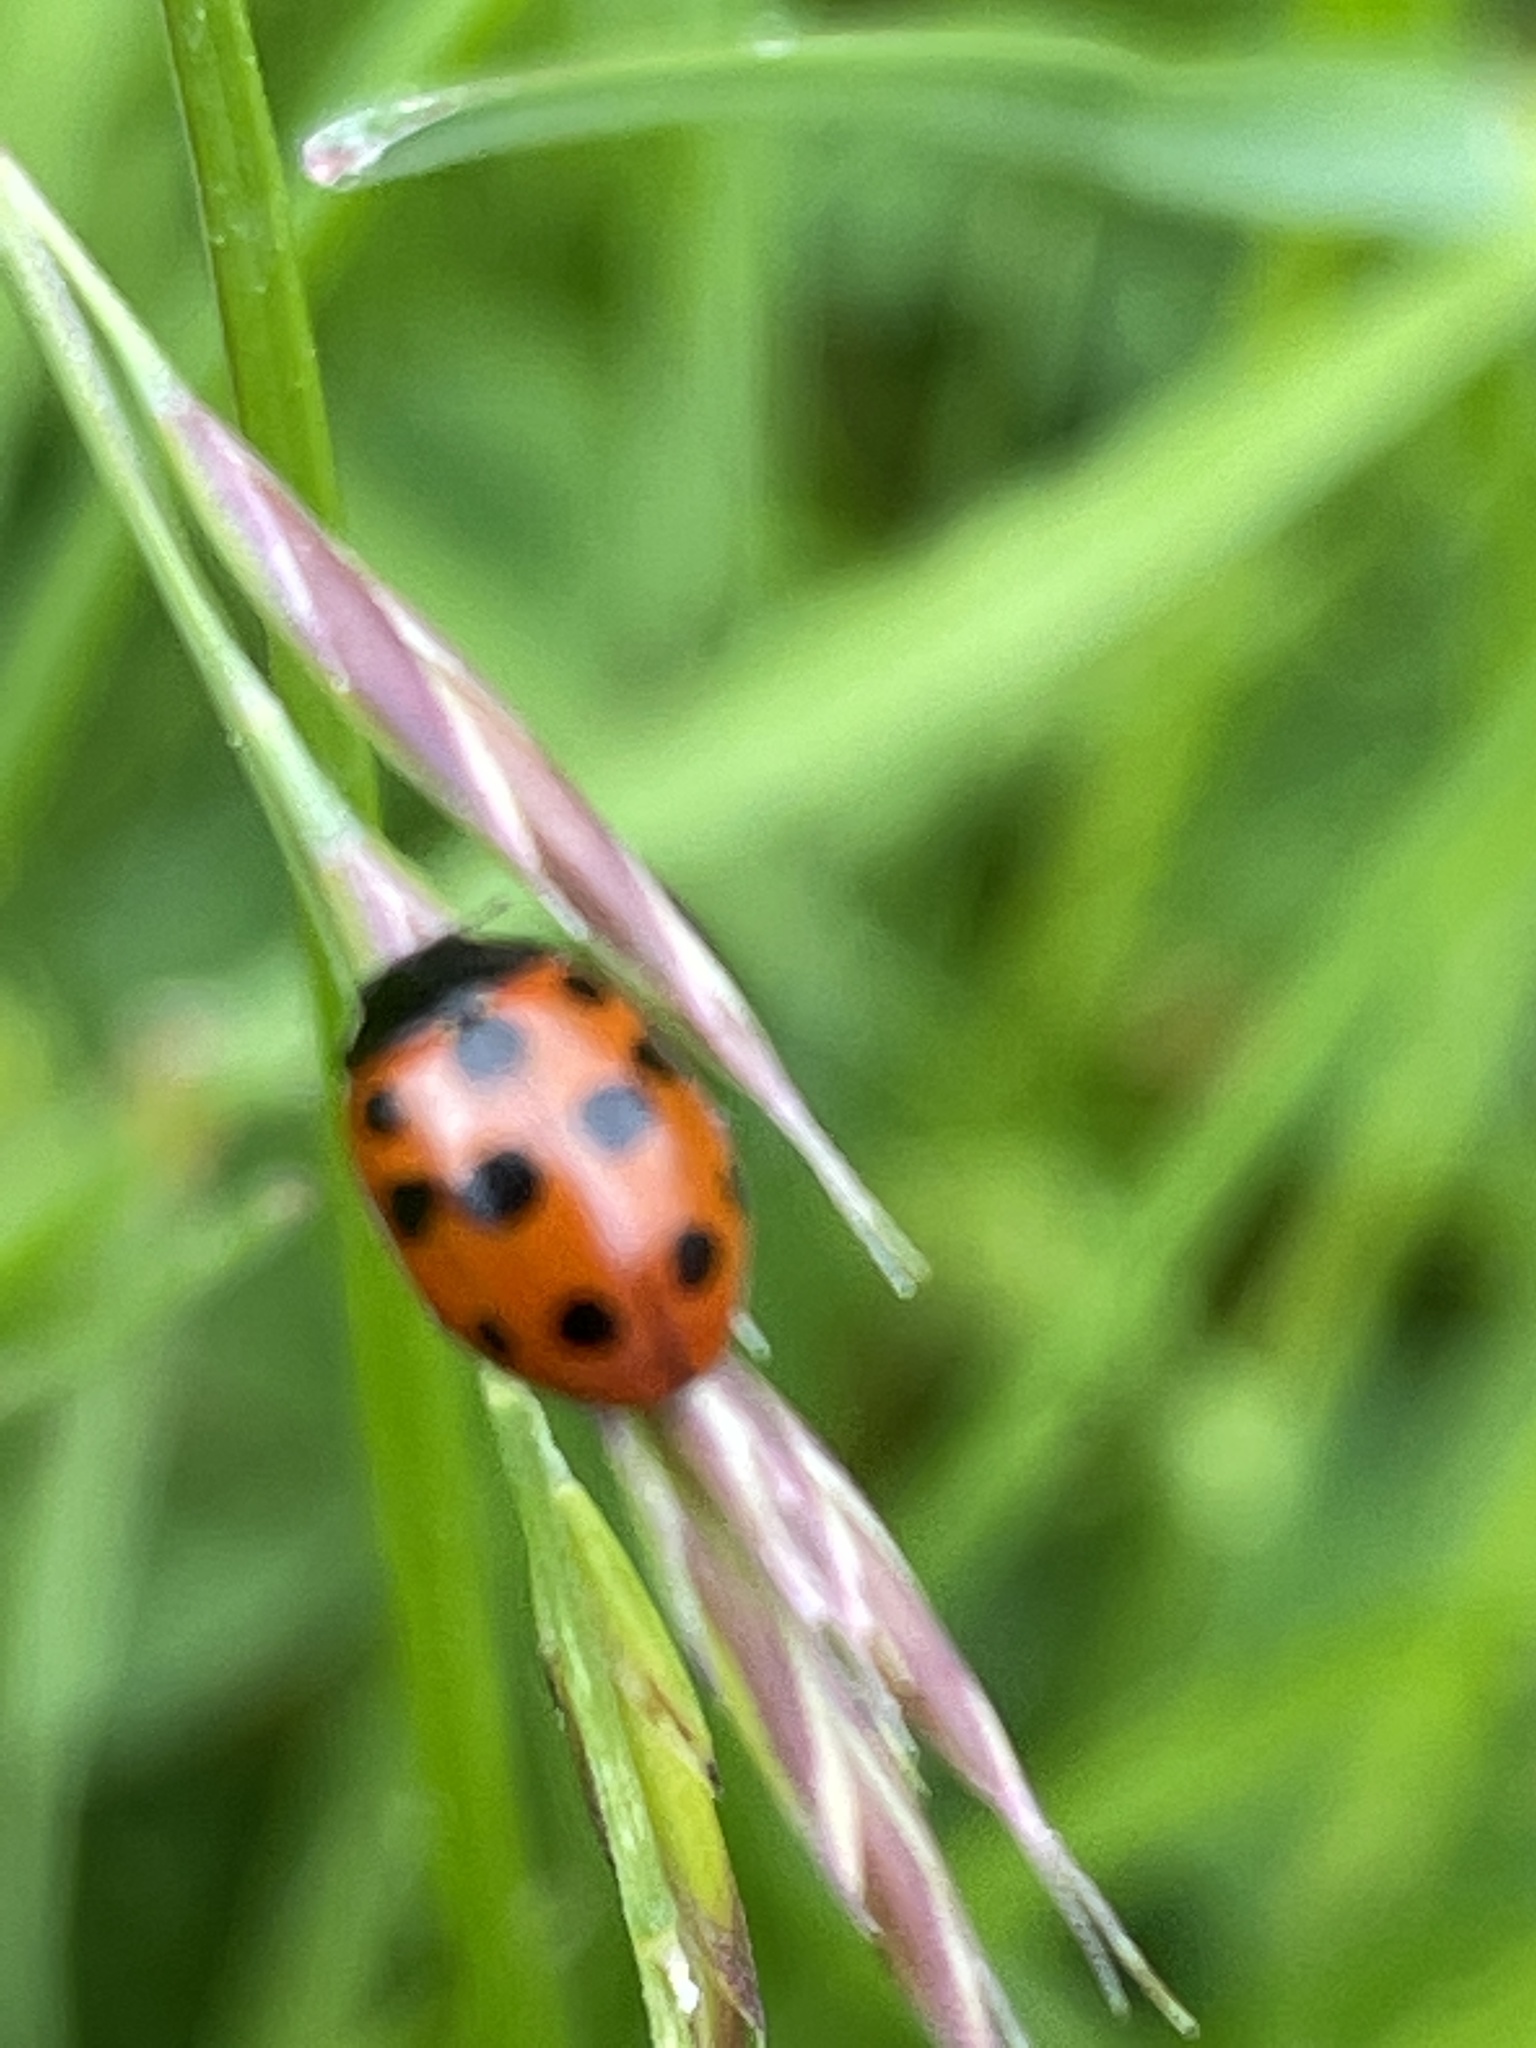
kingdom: Animalia
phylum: Arthropoda
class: Insecta
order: Coleoptera
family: Coccinellidae
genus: Coccinella
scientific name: Coccinella undecimpunctata
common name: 11-spot ladybird
